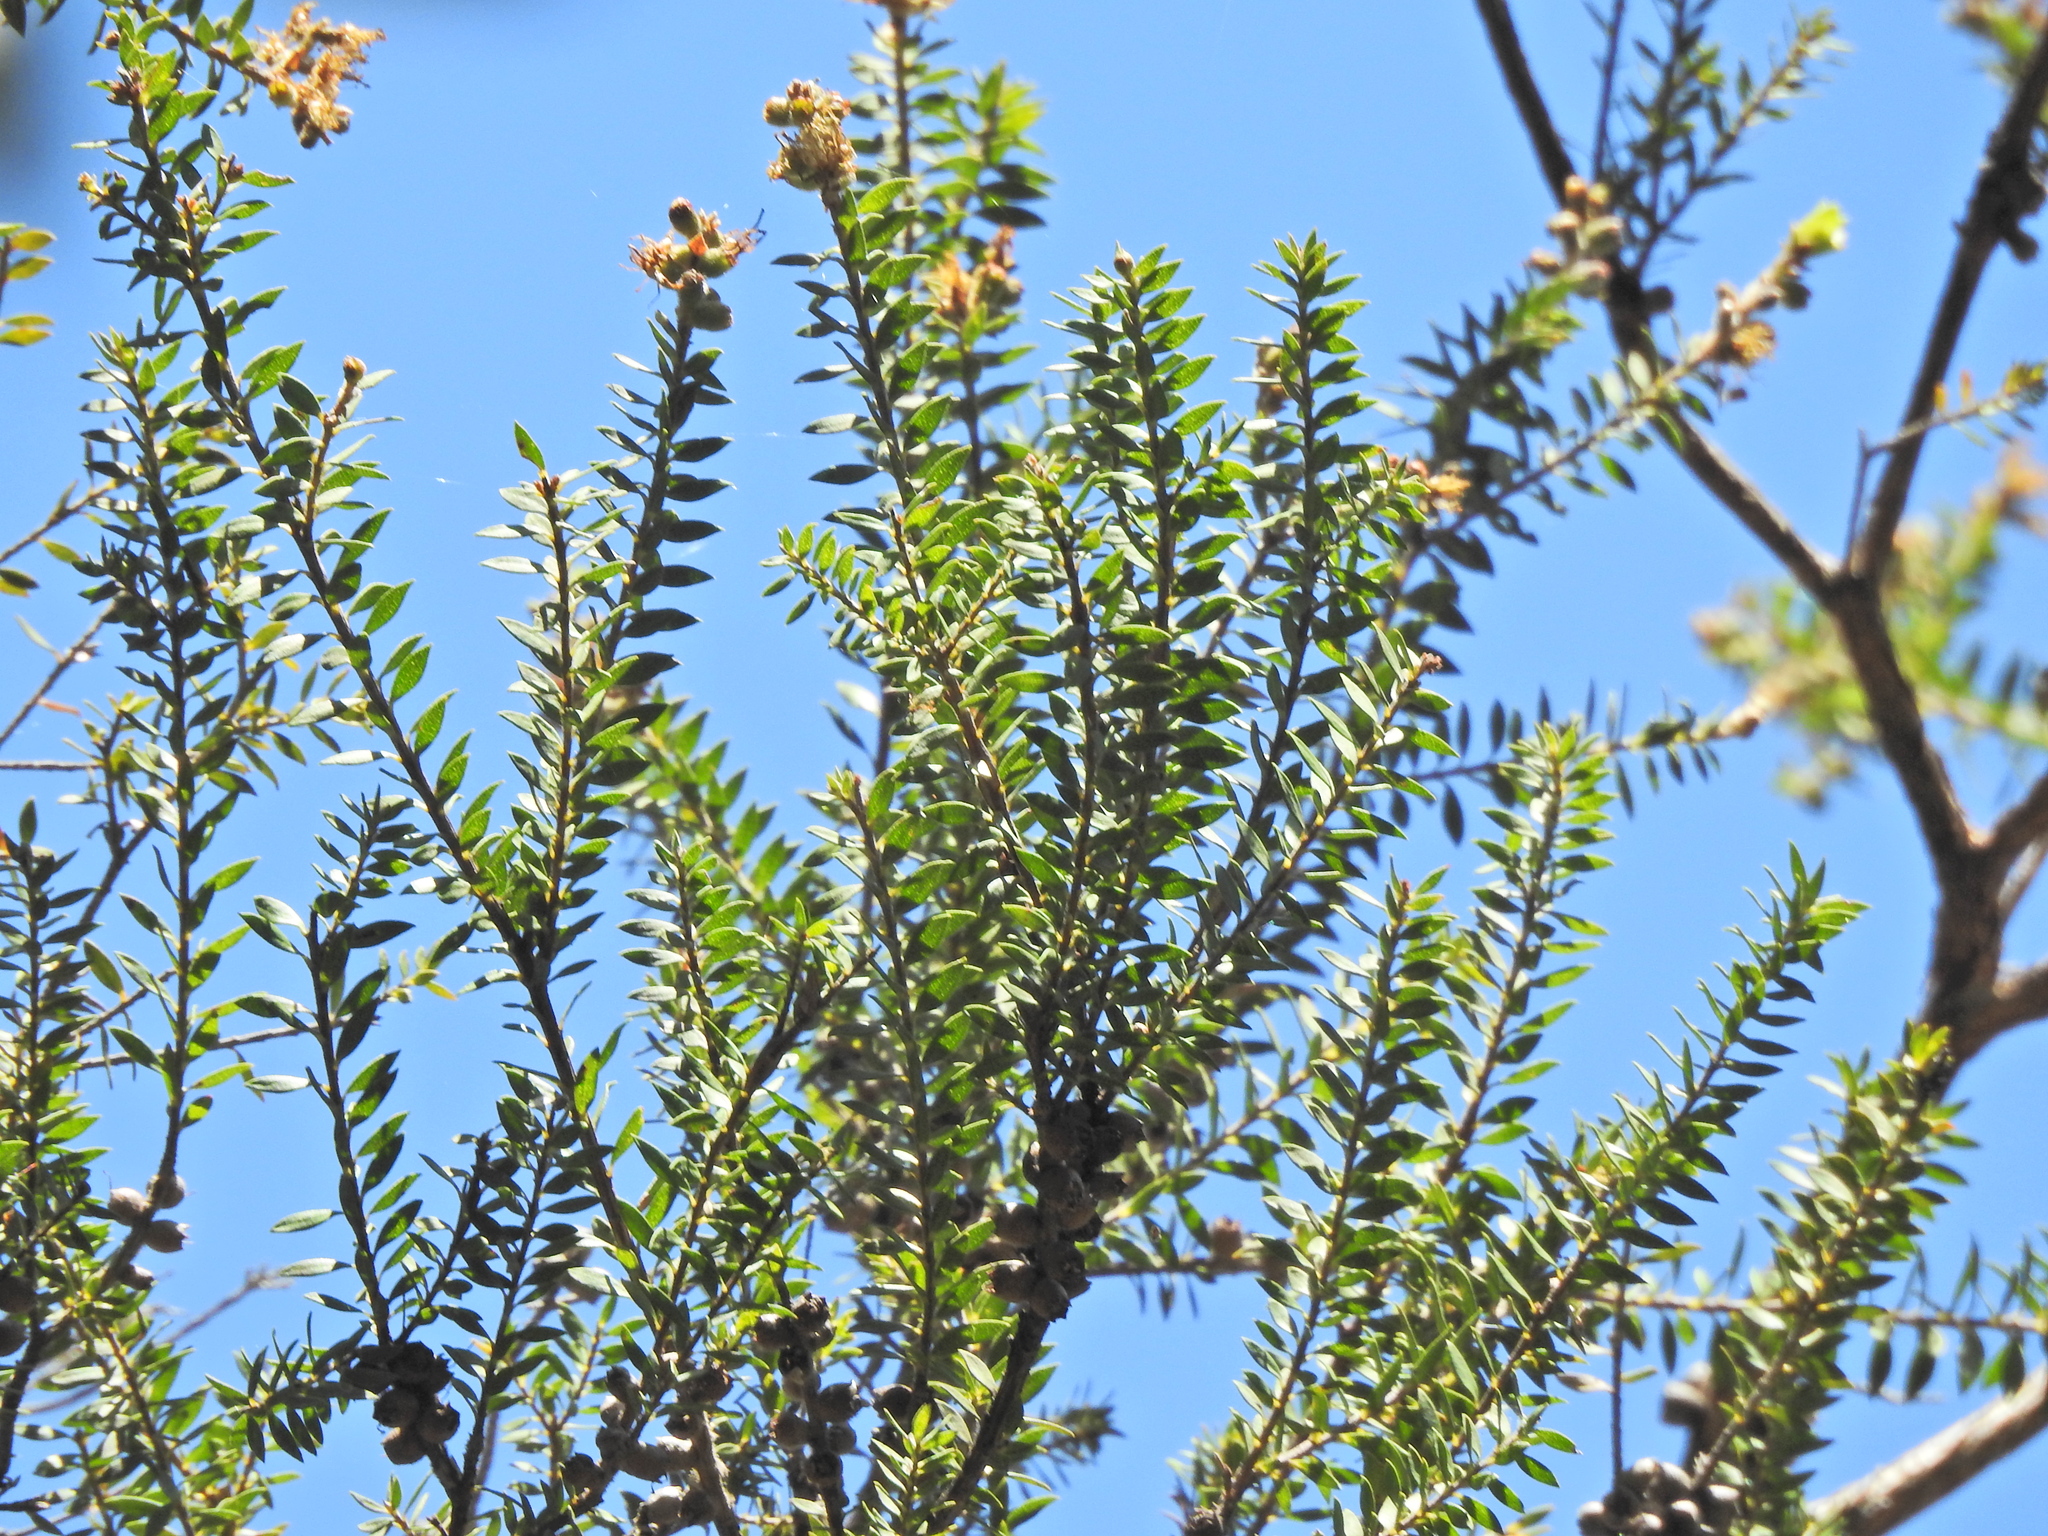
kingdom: Plantae
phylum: Tracheophyta
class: Magnoliopsida
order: Myrtales
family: Myrtaceae
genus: Melaleuca
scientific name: Melaleuca sieberi
